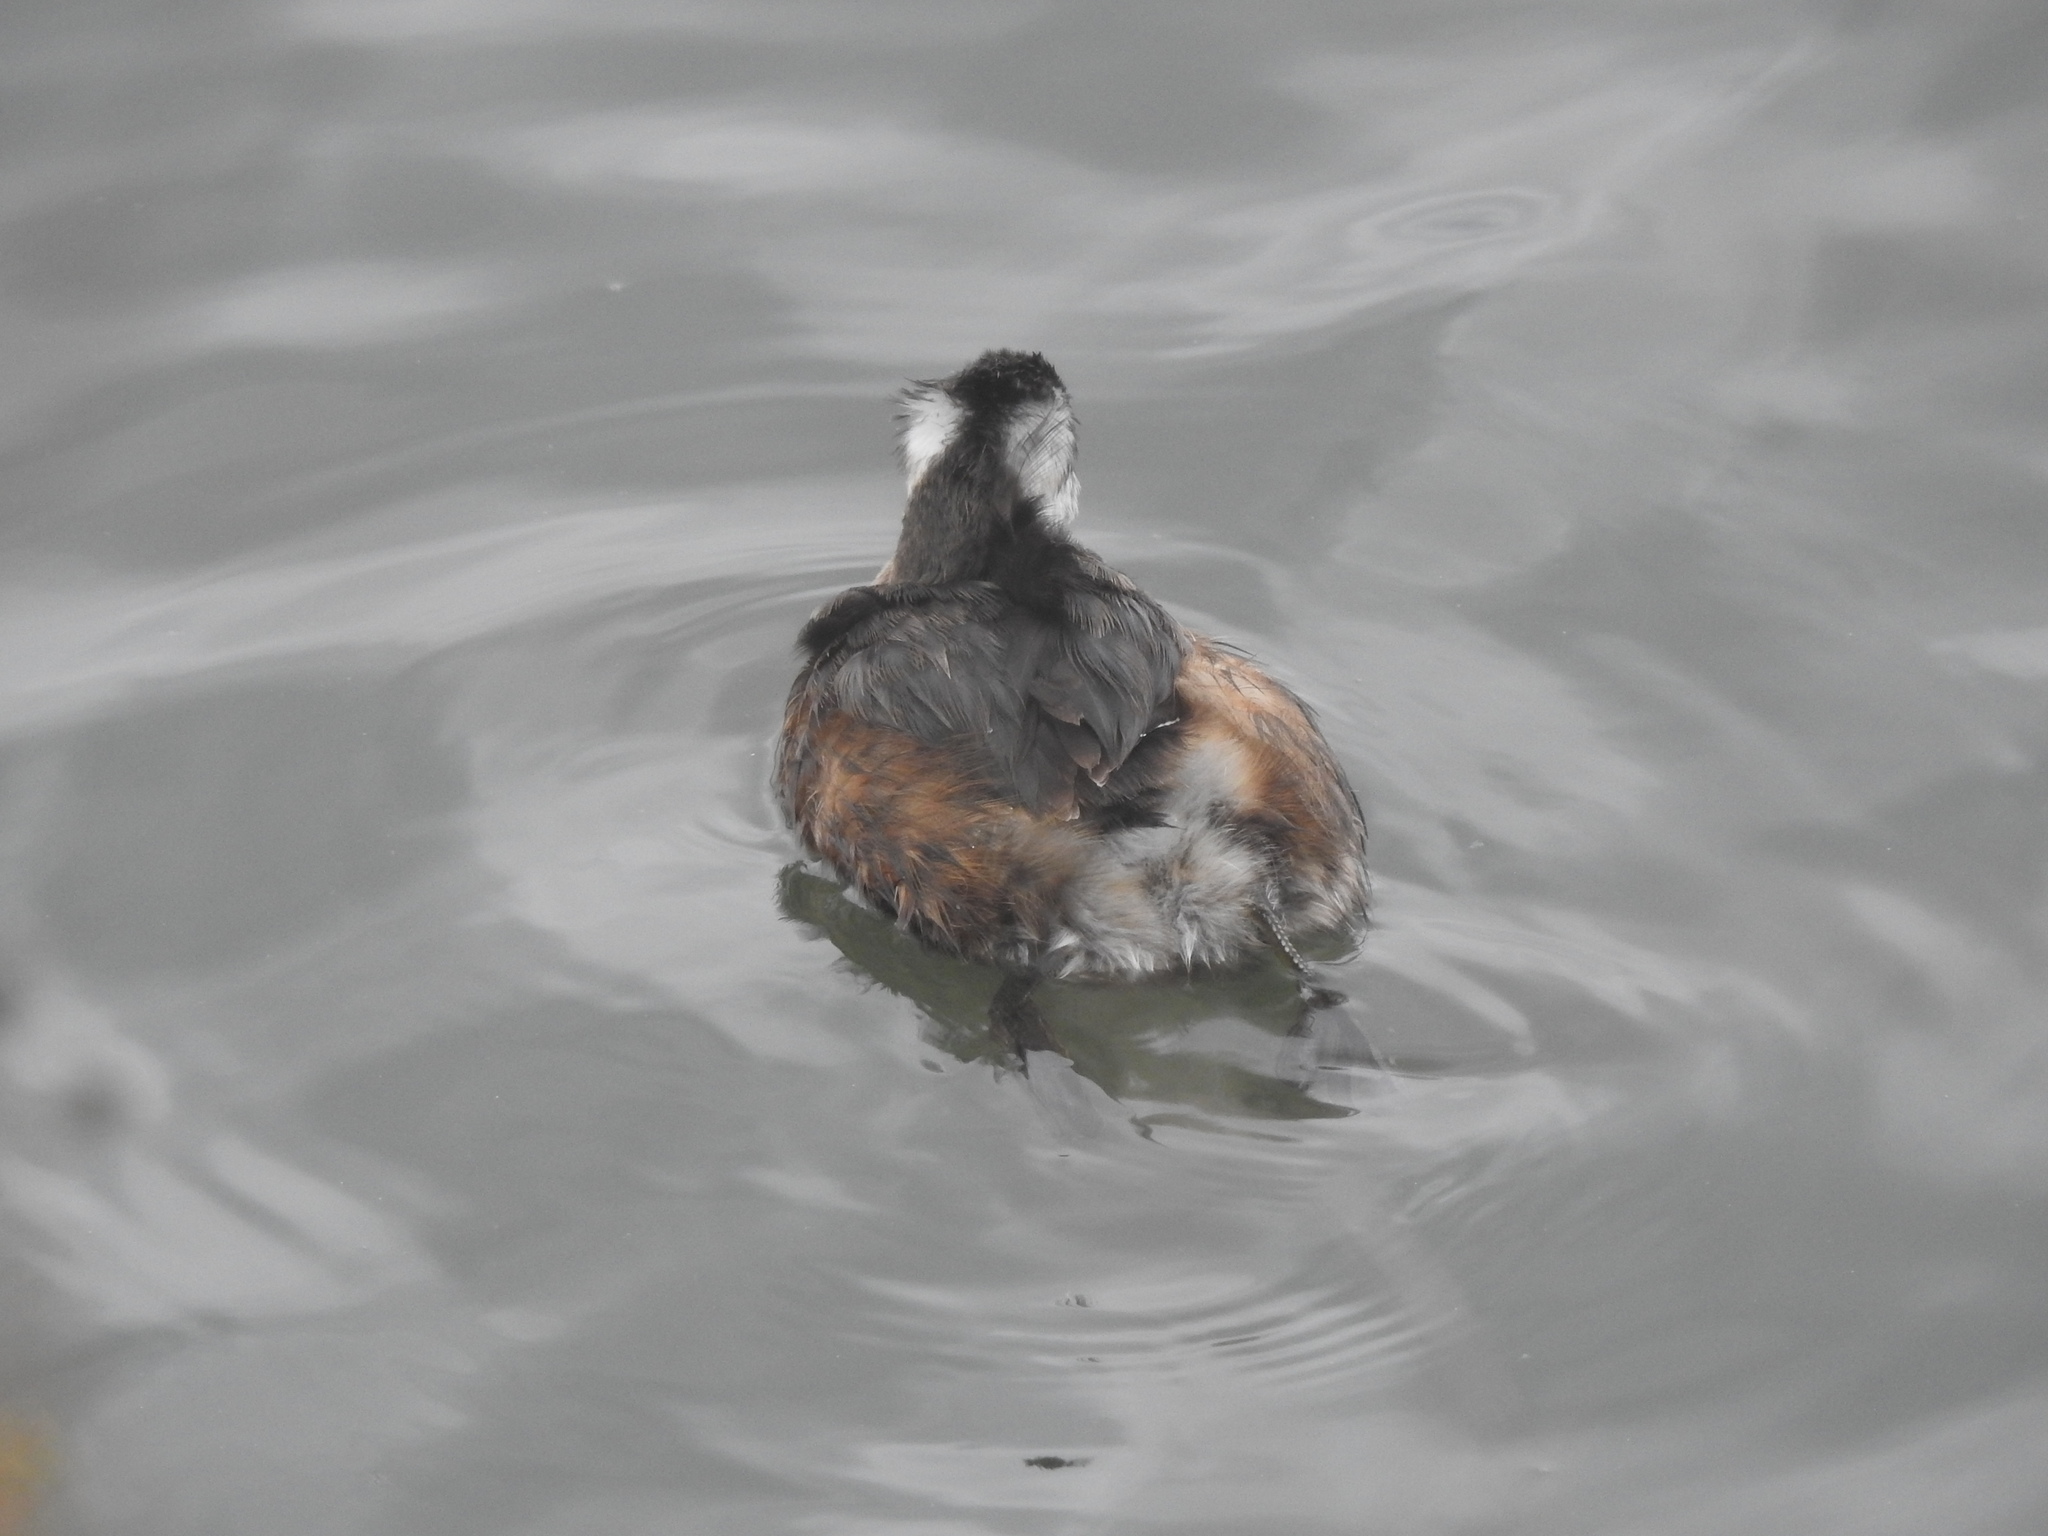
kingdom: Animalia
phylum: Chordata
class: Aves
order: Podicipediformes
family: Podicipedidae
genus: Rollandia
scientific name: Rollandia rolland
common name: White-tufted grebe
